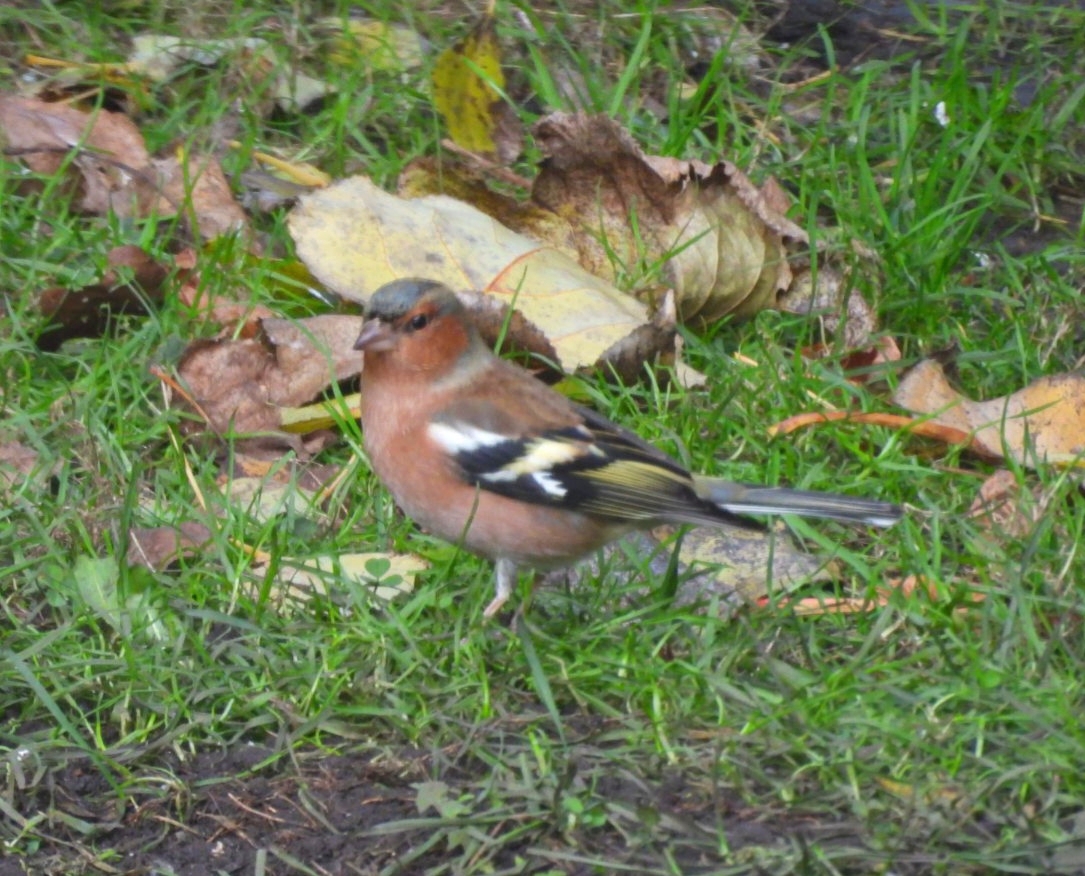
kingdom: Animalia
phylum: Chordata
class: Aves
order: Passeriformes
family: Fringillidae
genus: Fringilla
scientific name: Fringilla coelebs
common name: Common chaffinch
